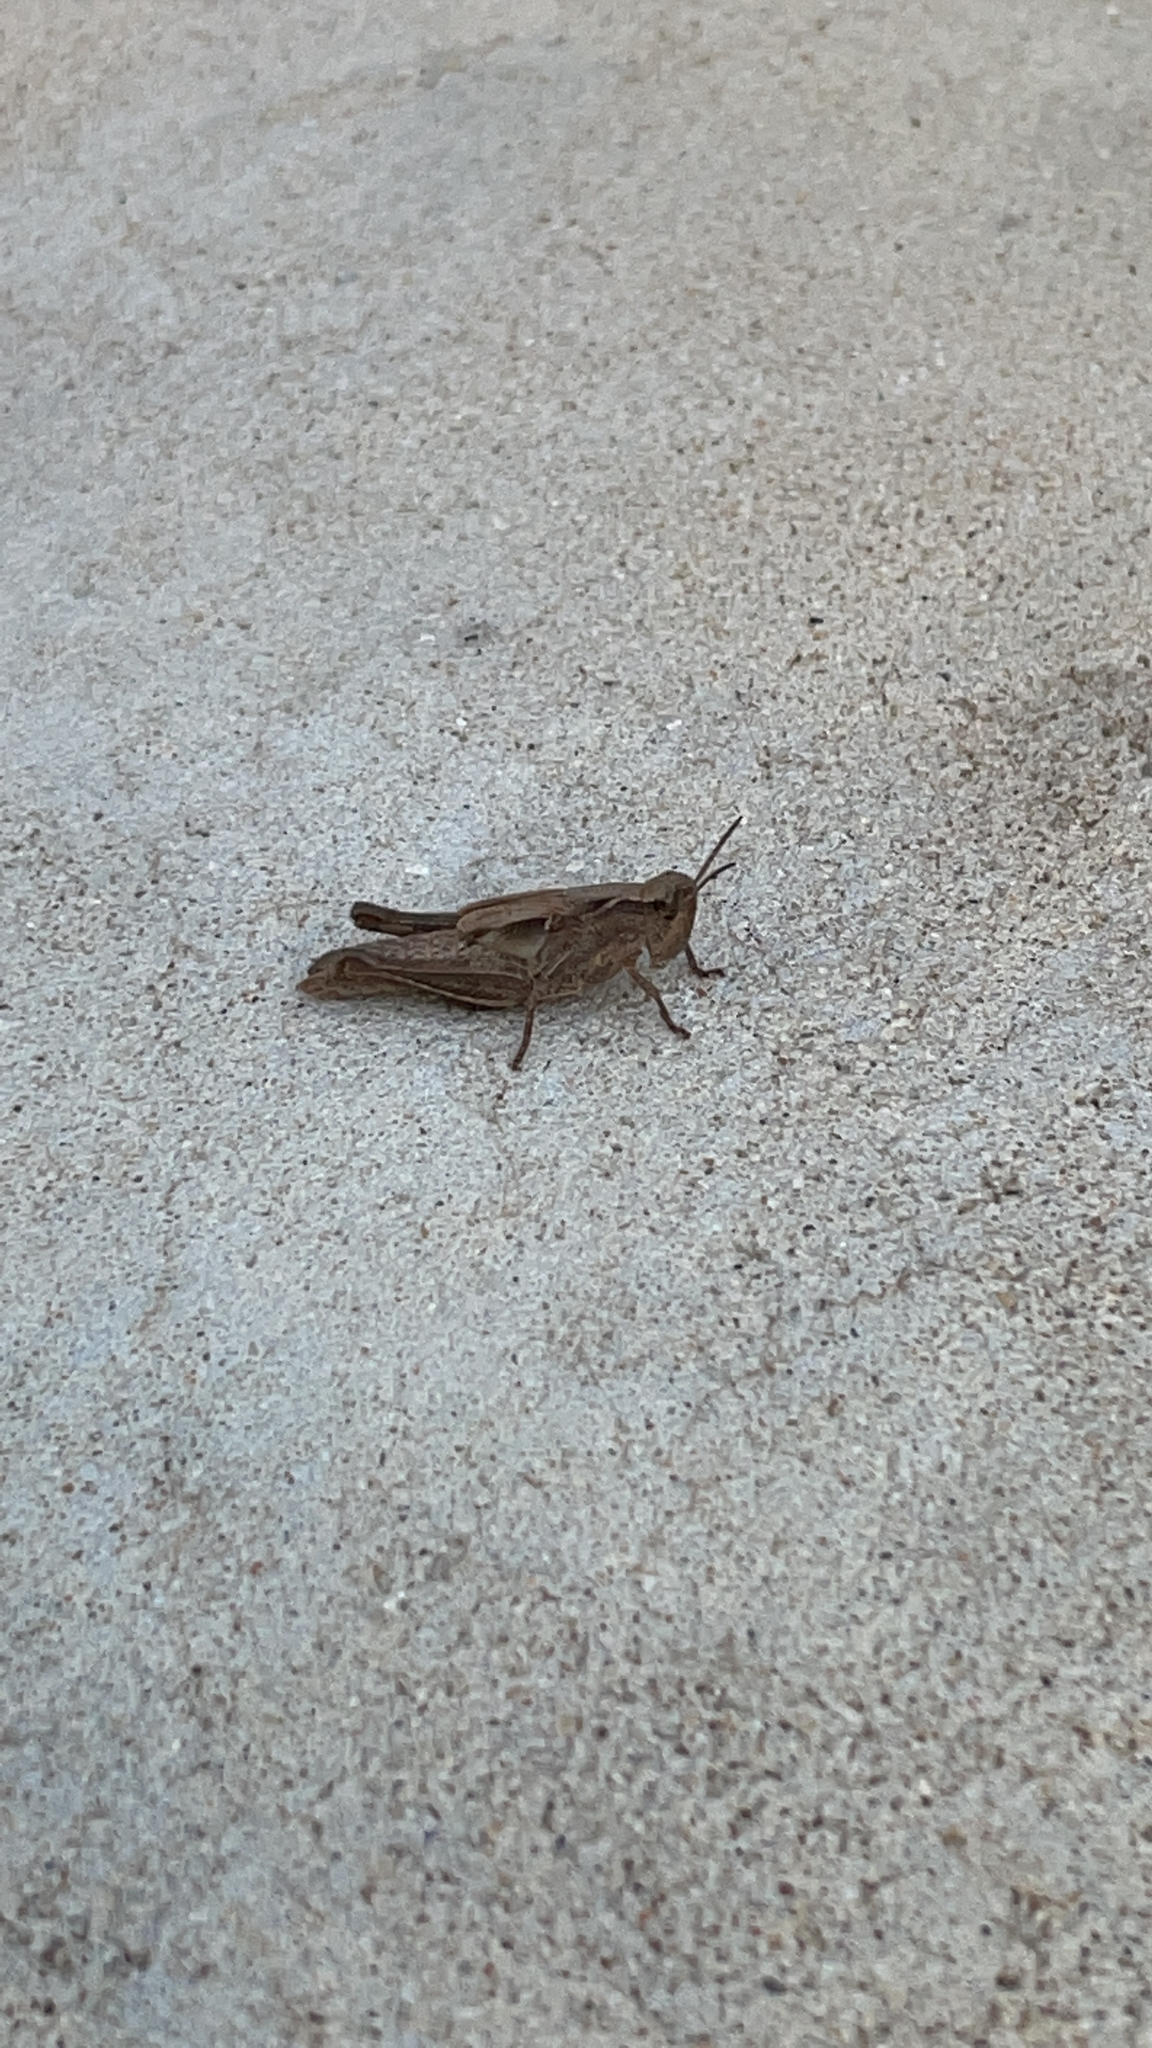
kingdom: Animalia
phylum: Arthropoda
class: Insecta
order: Orthoptera
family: Acrididae
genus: Aiolopus
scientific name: Aiolopus puissanti
